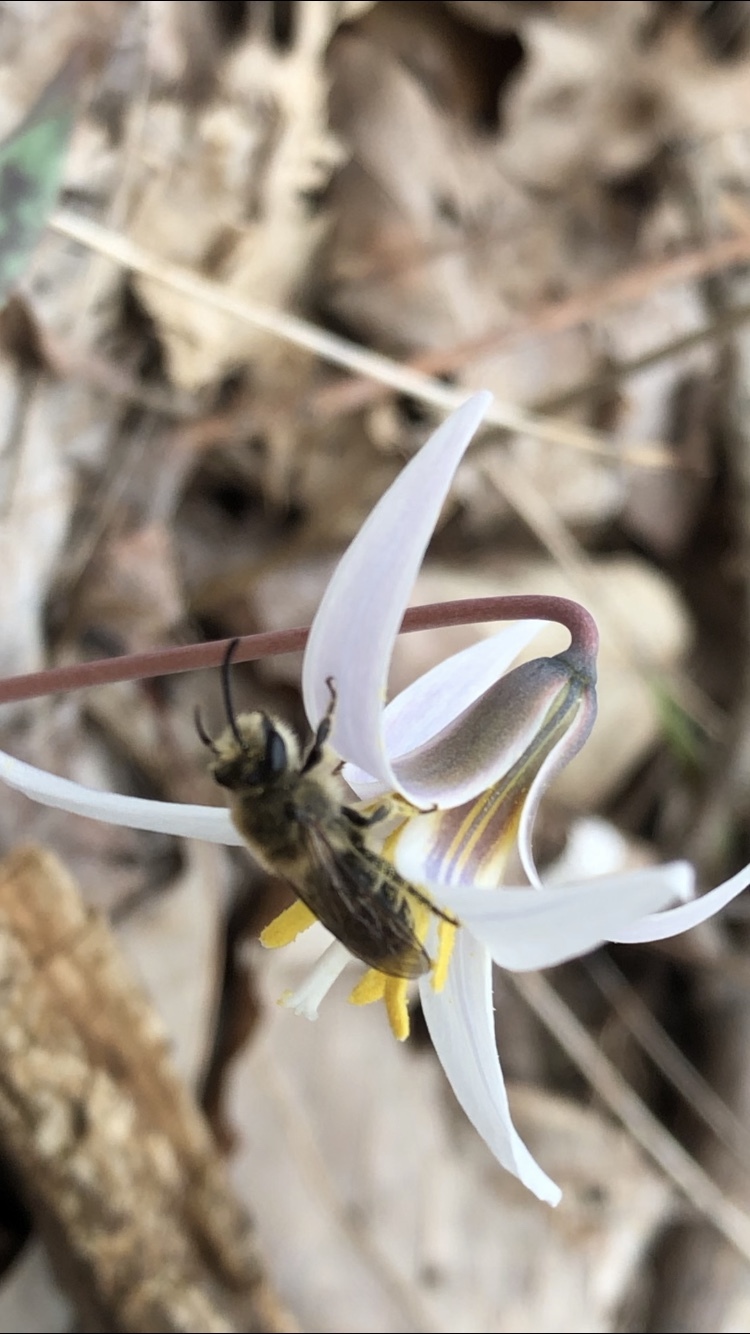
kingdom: Animalia
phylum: Arthropoda
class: Insecta
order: Hymenoptera
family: Colletidae
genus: Colletes
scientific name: Colletes inaequalis
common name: Unequal cellophane bee
